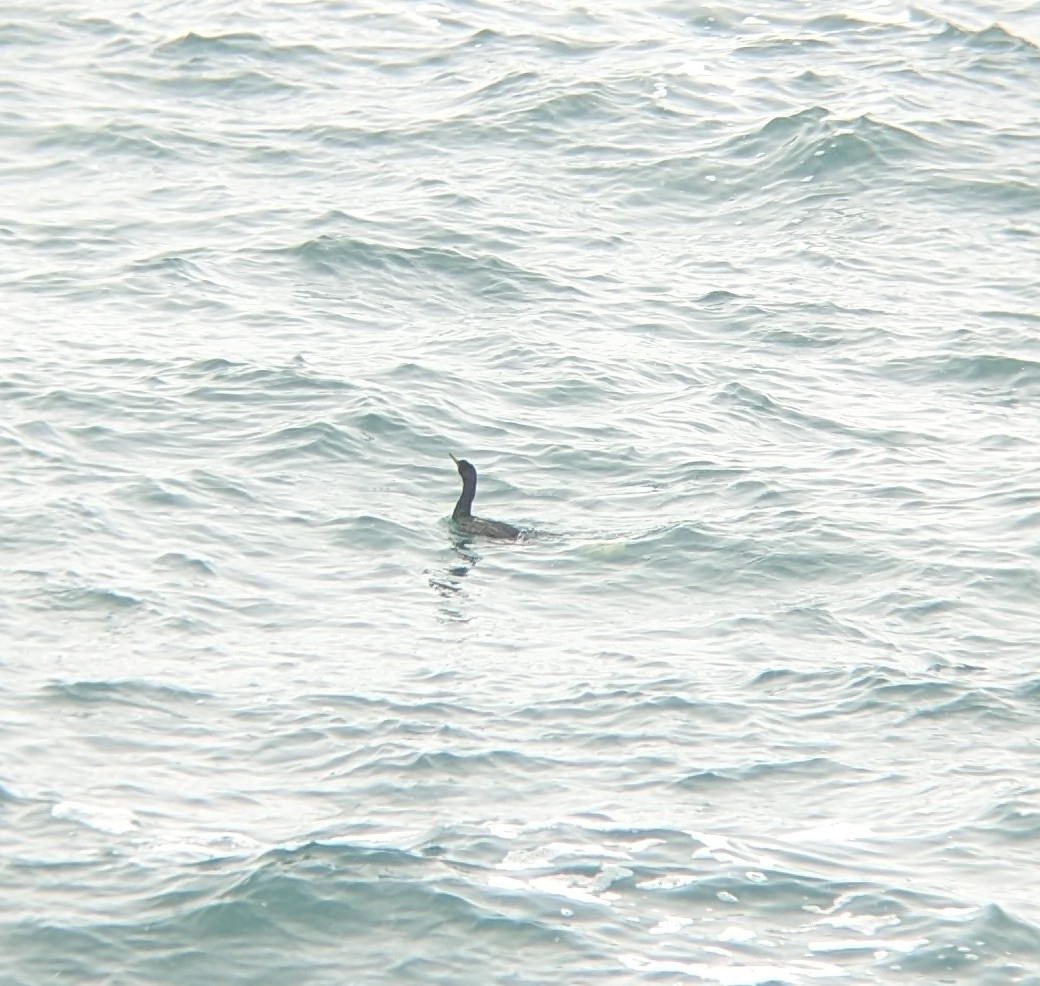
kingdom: Animalia
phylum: Chordata
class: Aves
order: Suliformes
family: Phalacrocoracidae
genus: Phalacrocorax
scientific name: Phalacrocorax pelagicus
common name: Pelagic cormorant
